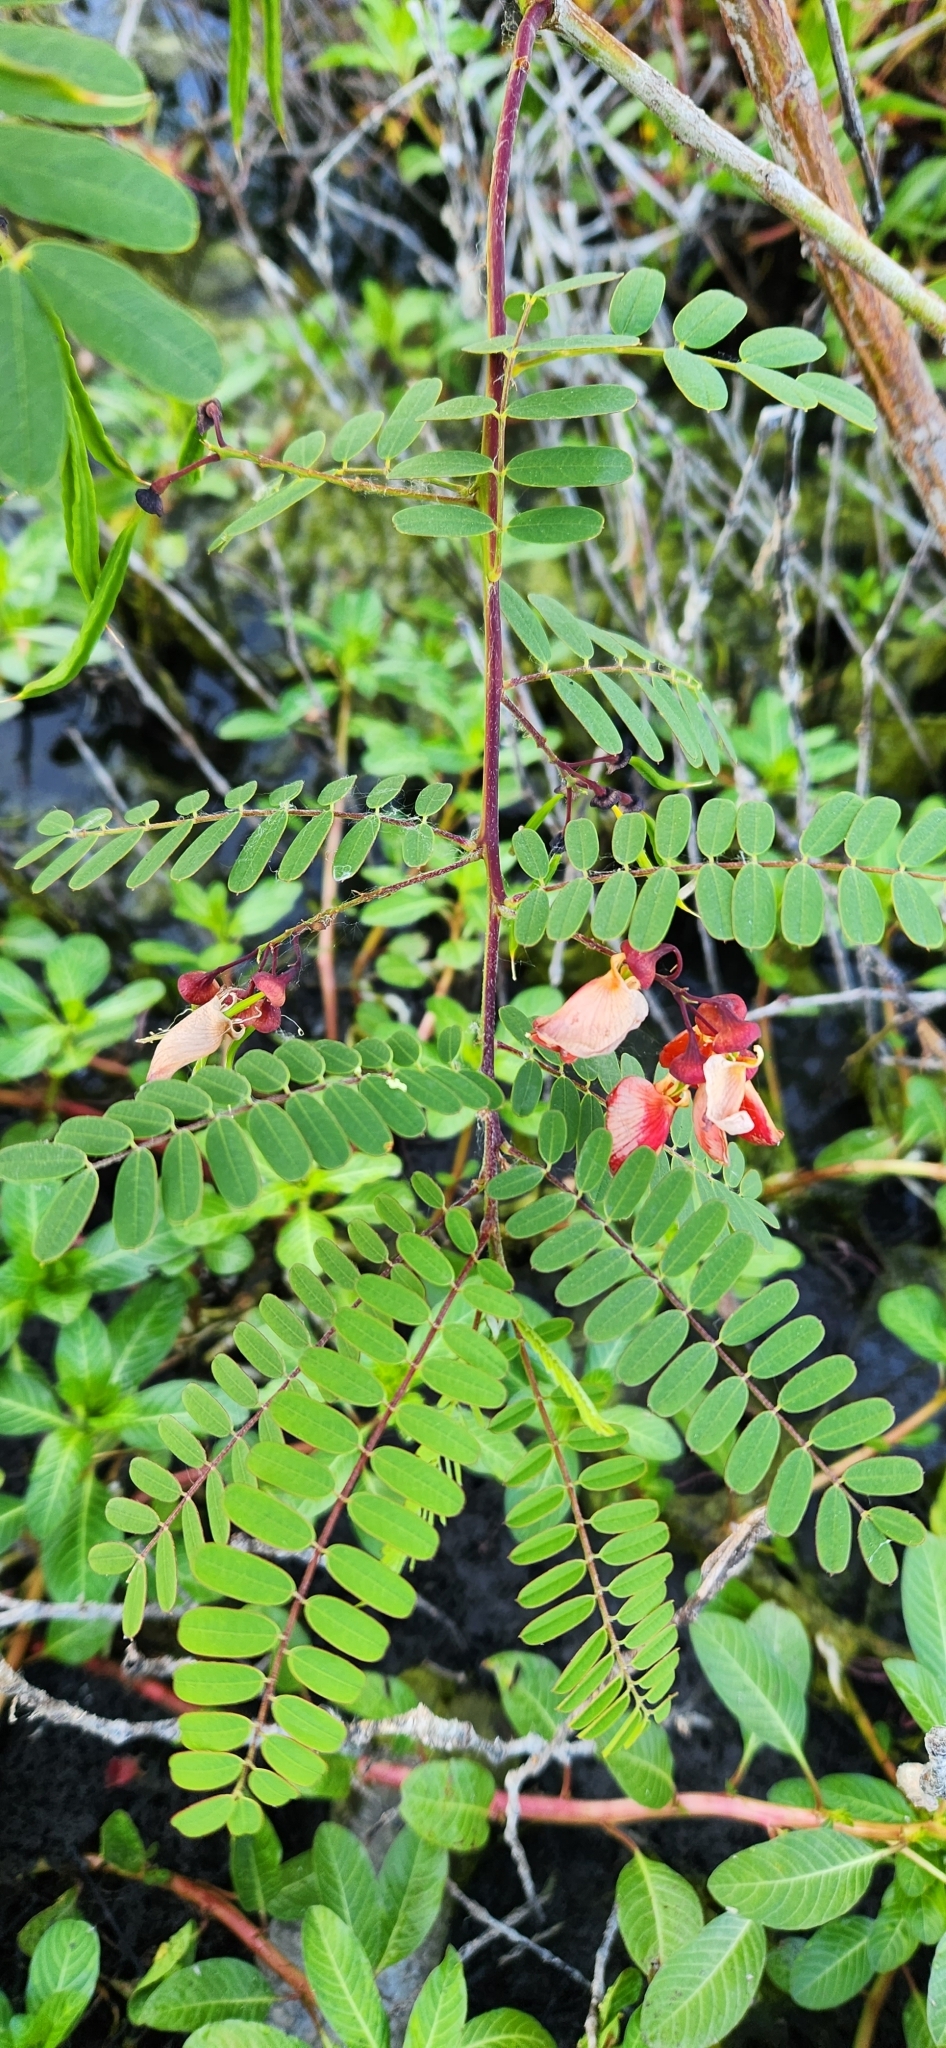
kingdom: Plantae
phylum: Tracheophyta
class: Magnoliopsida
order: Fabales
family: Fabaceae
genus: Sesbania
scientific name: Sesbania punicea
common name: Rattlebox
